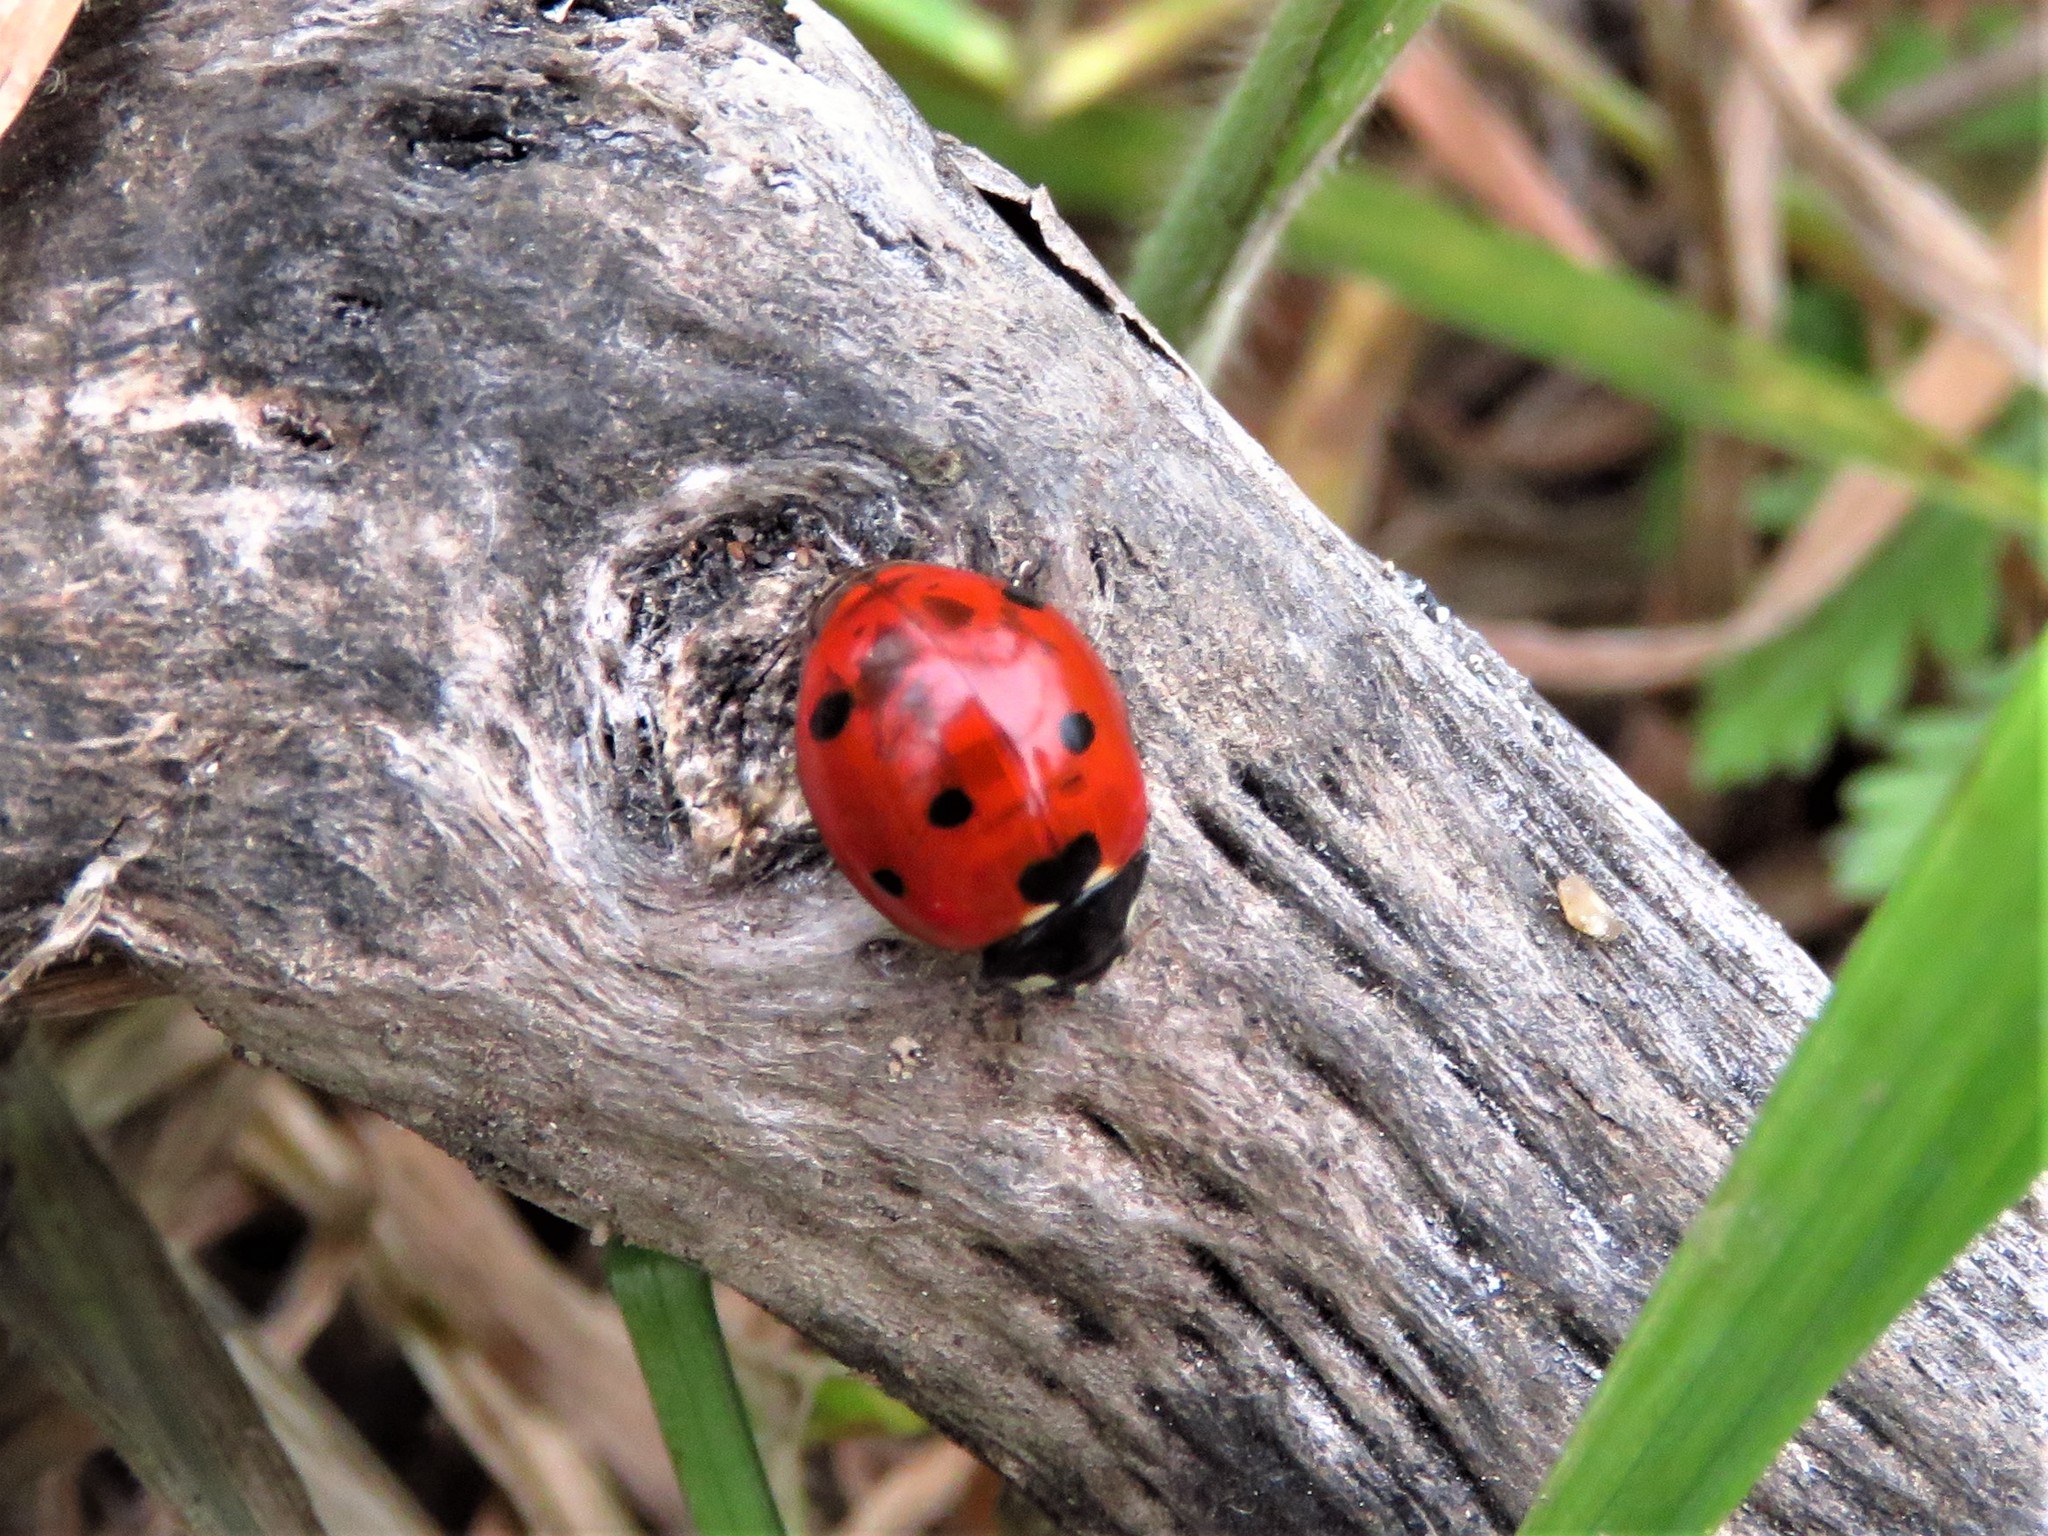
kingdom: Animalia
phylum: Arthropoda
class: Insecta
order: Coleoptera
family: Coccinellidae
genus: Coccinella
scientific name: Coccinella septempunctata
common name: Sevenspotted lady beetle
